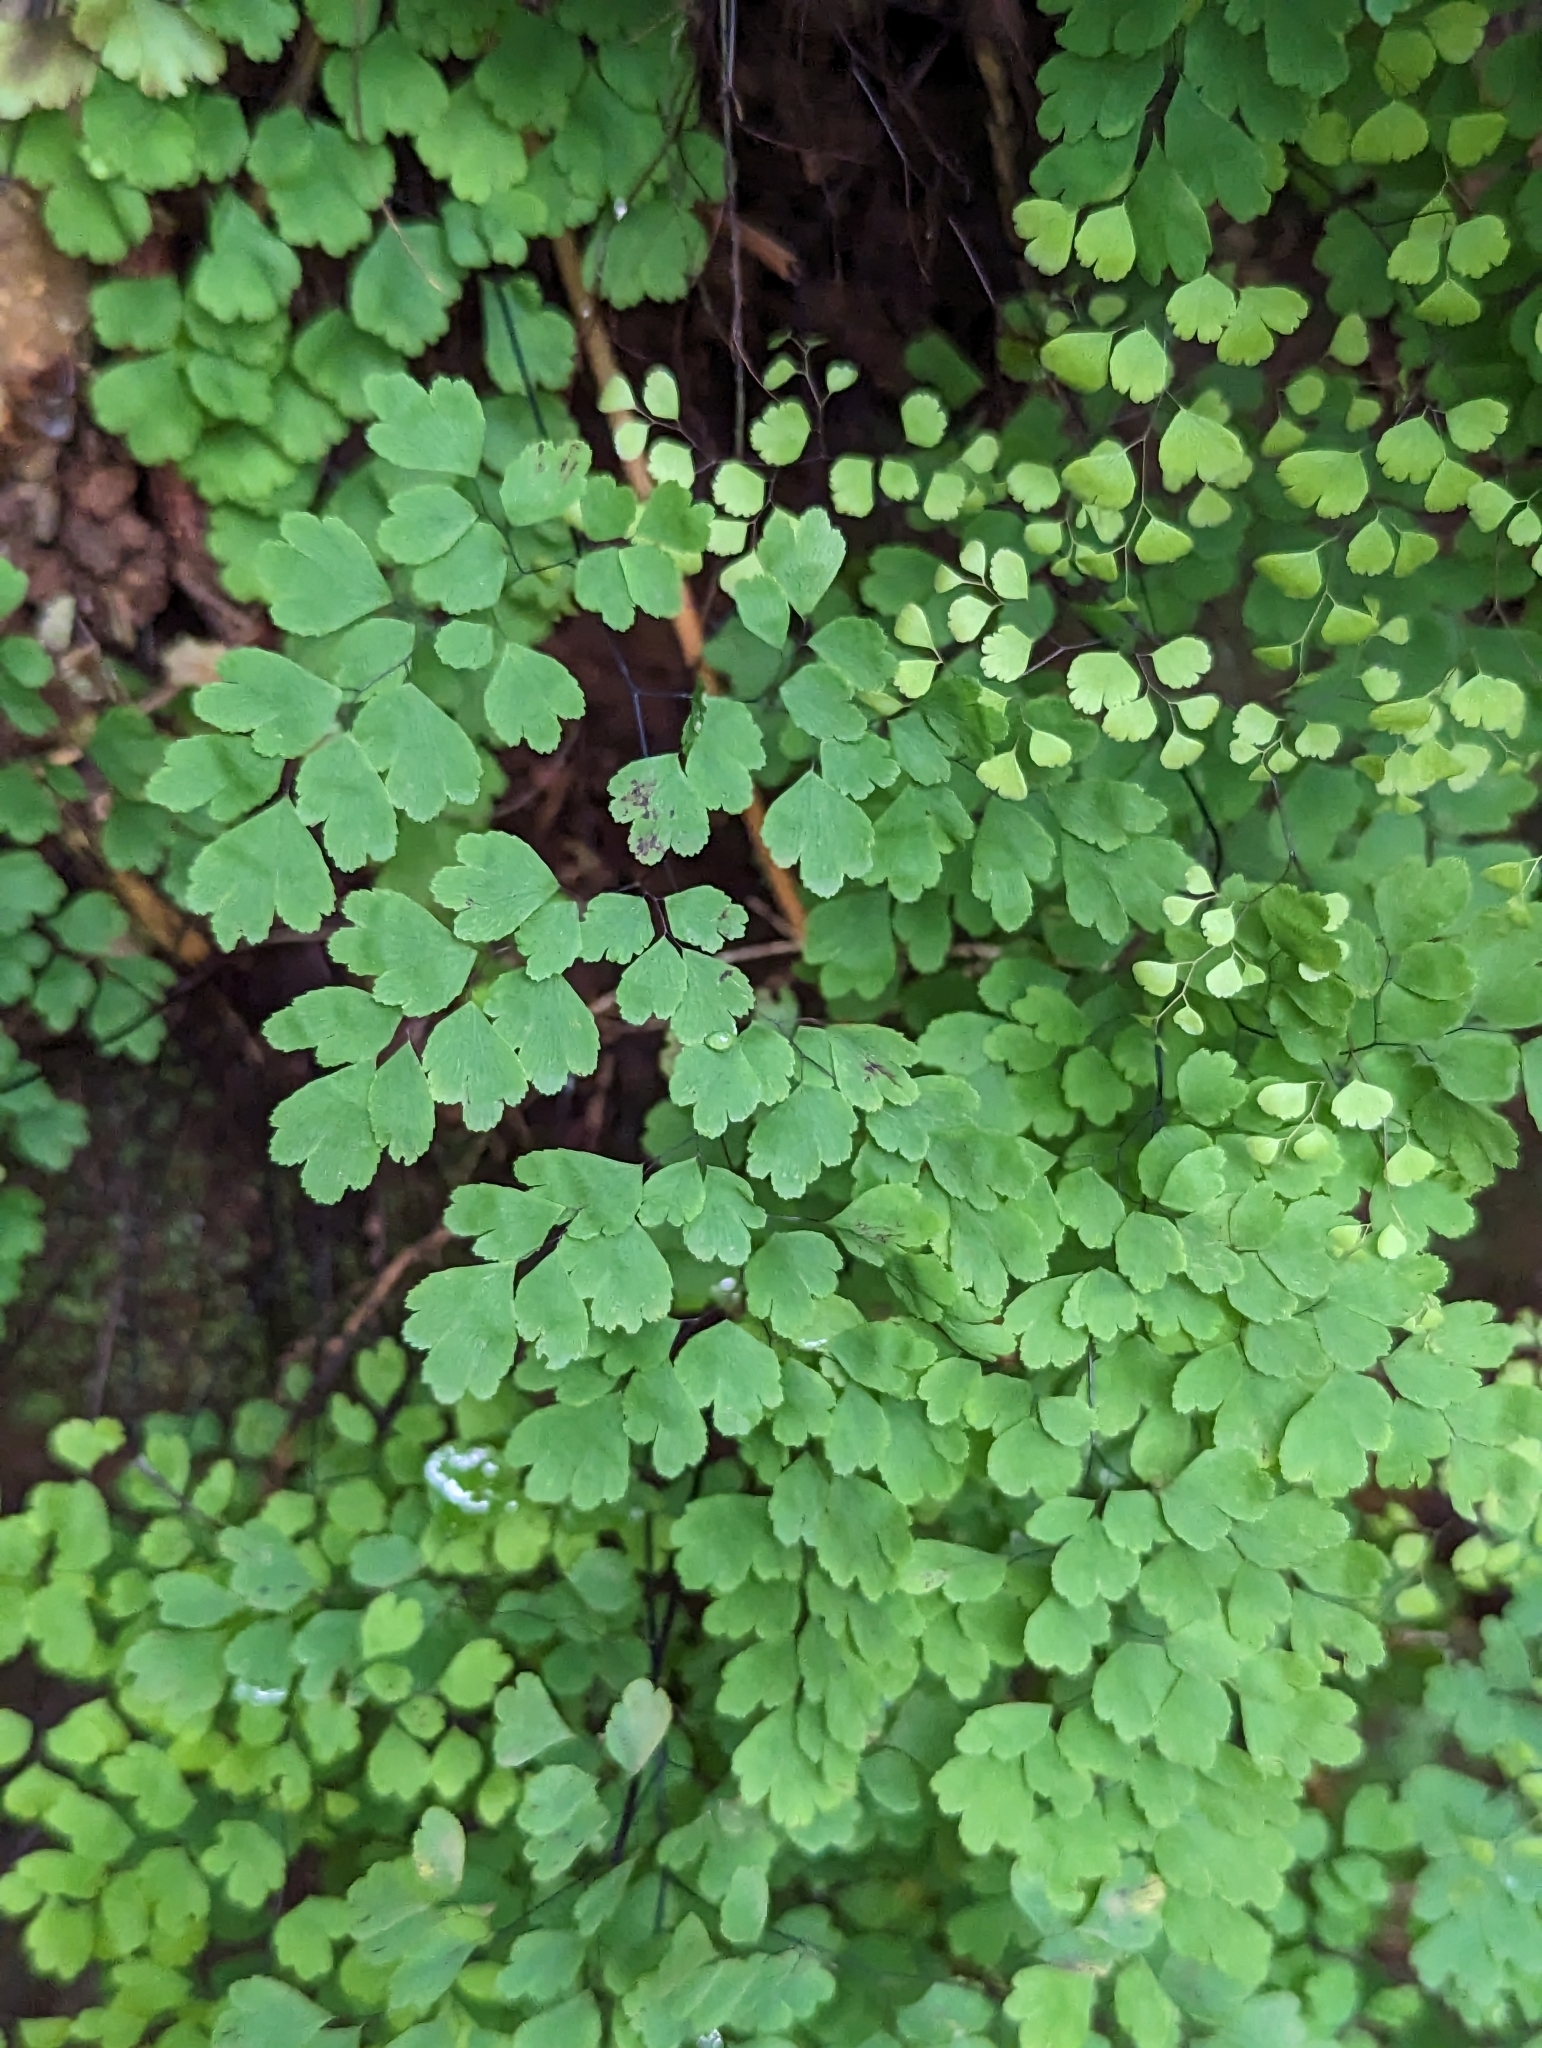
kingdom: Plantae
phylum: Tracheophyta
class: Polypodiopsida
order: Polypodiales
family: Pteridaceae
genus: Adiantum
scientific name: Adiantum raddianum
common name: Delta maidenhair fern
